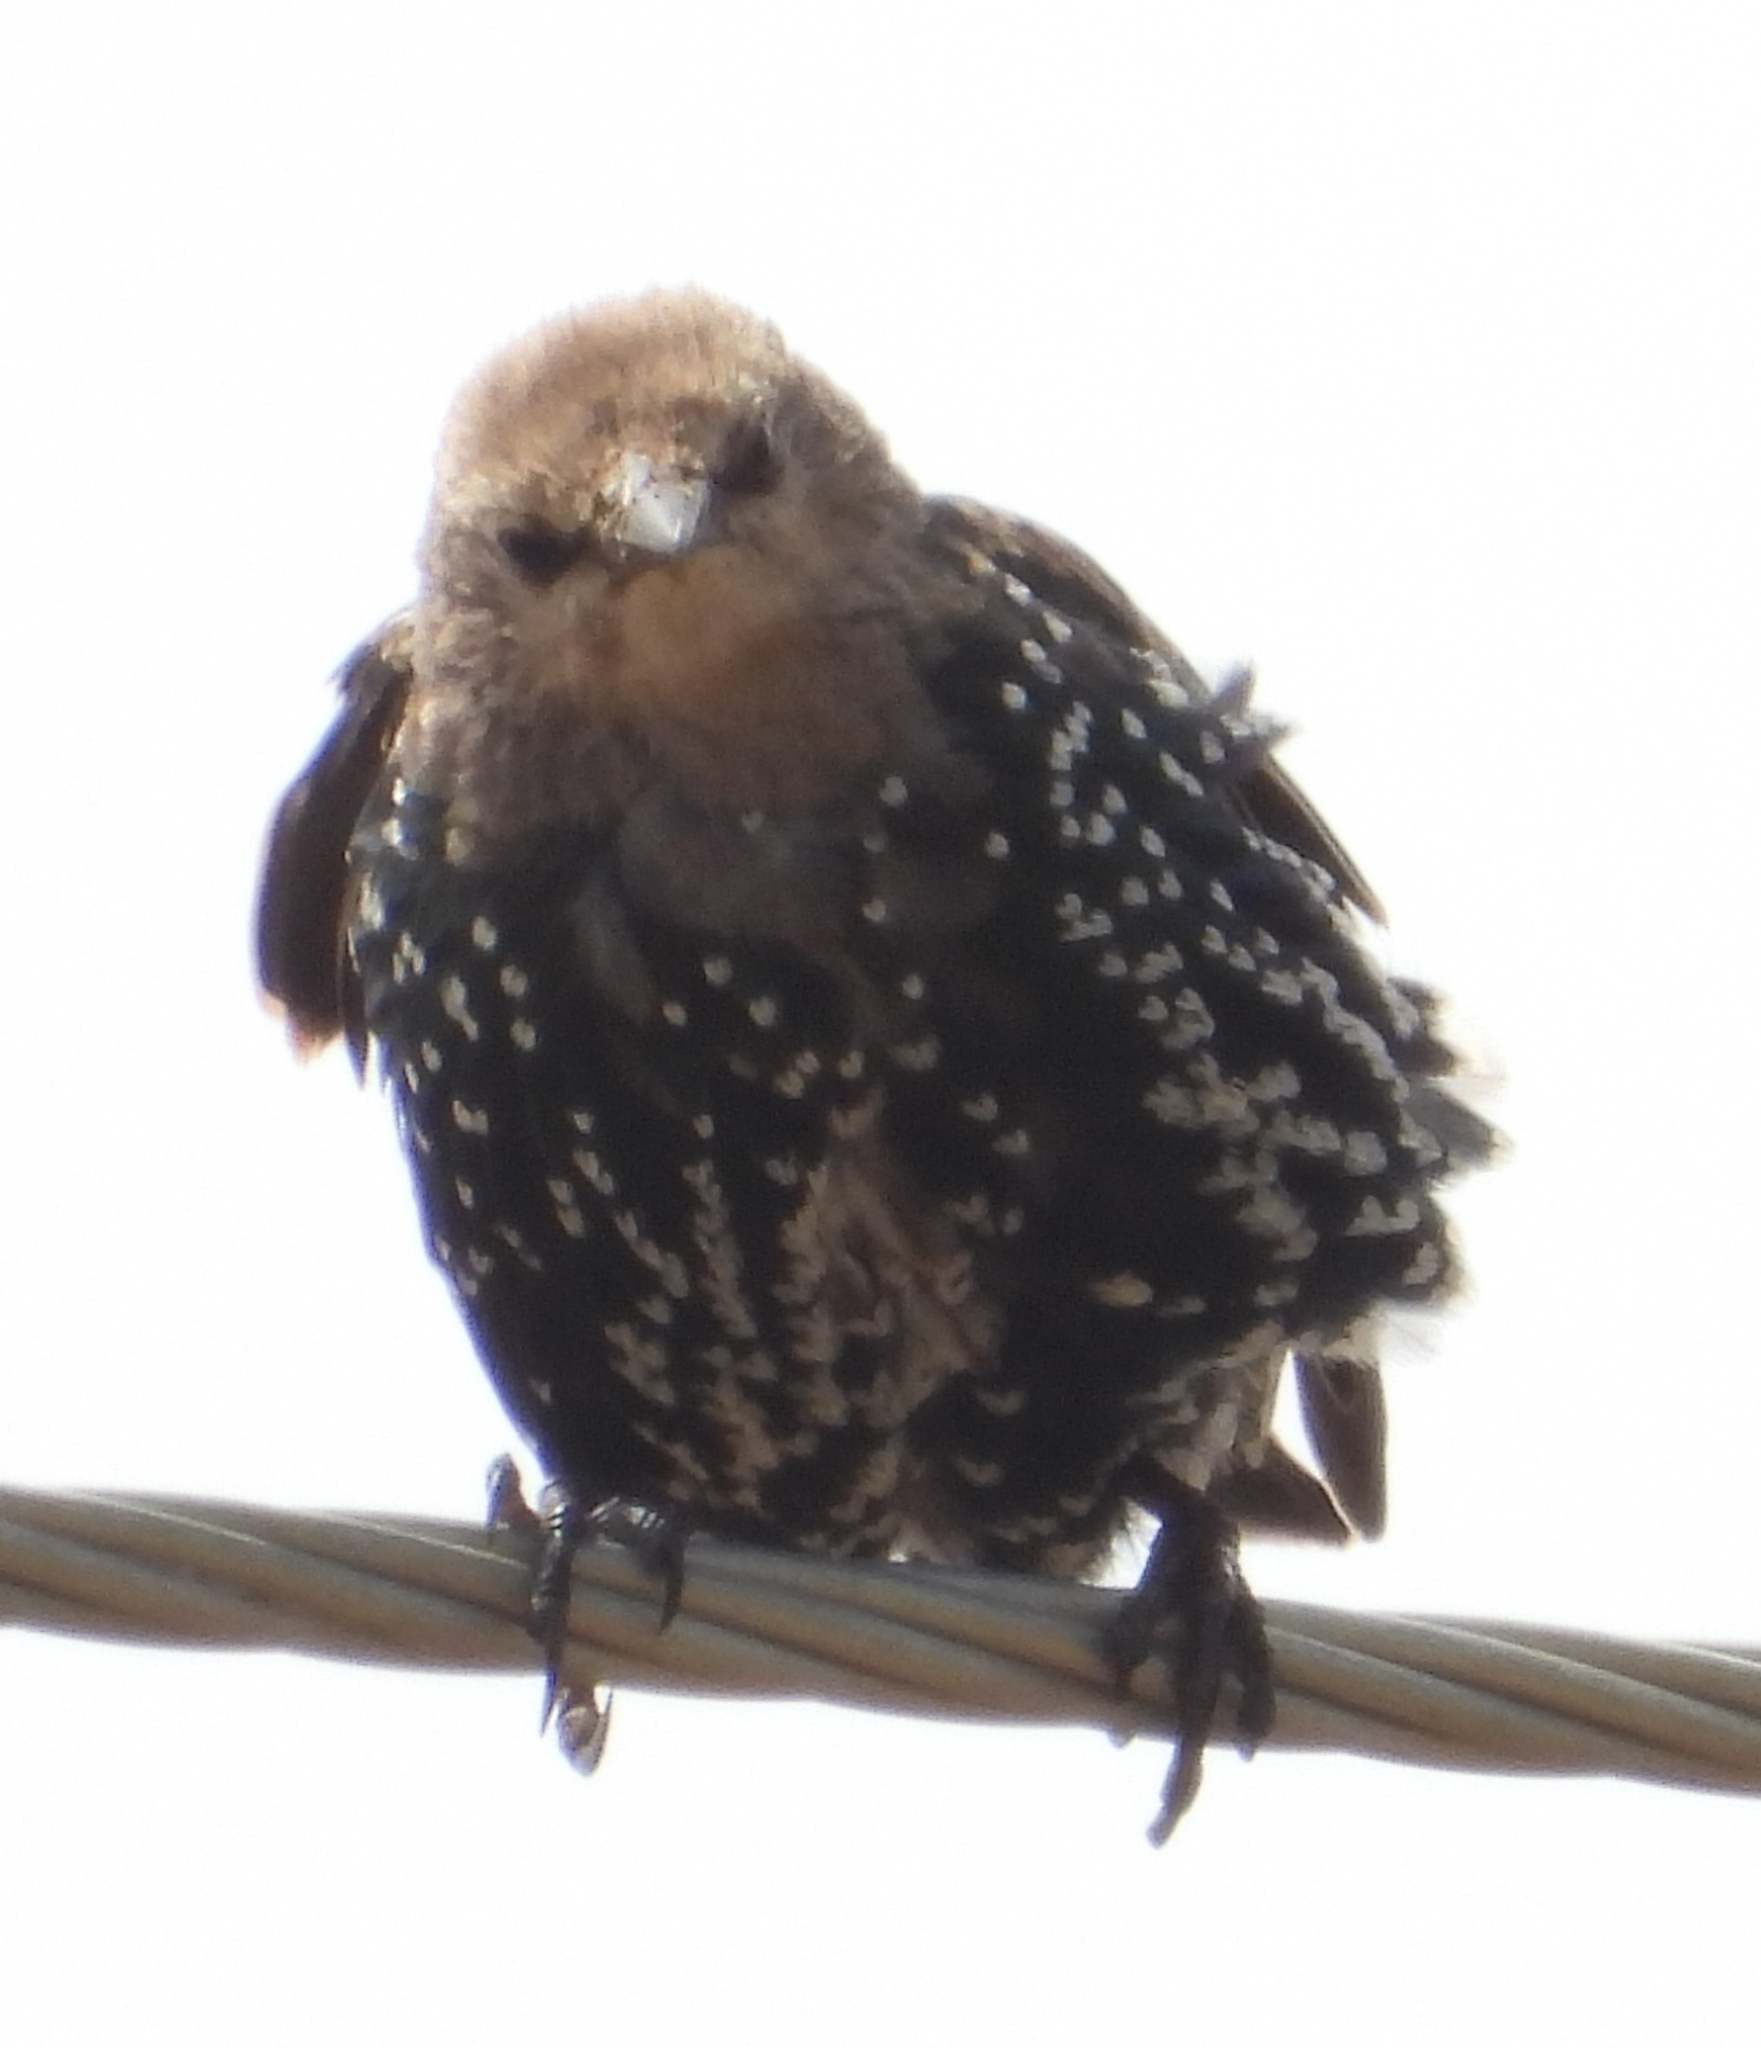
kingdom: Animalia
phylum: Chordata
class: Aves
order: Passeriformes
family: Sturnidae
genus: Sturnus
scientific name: Sturnus vulgaris
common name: Common starling
